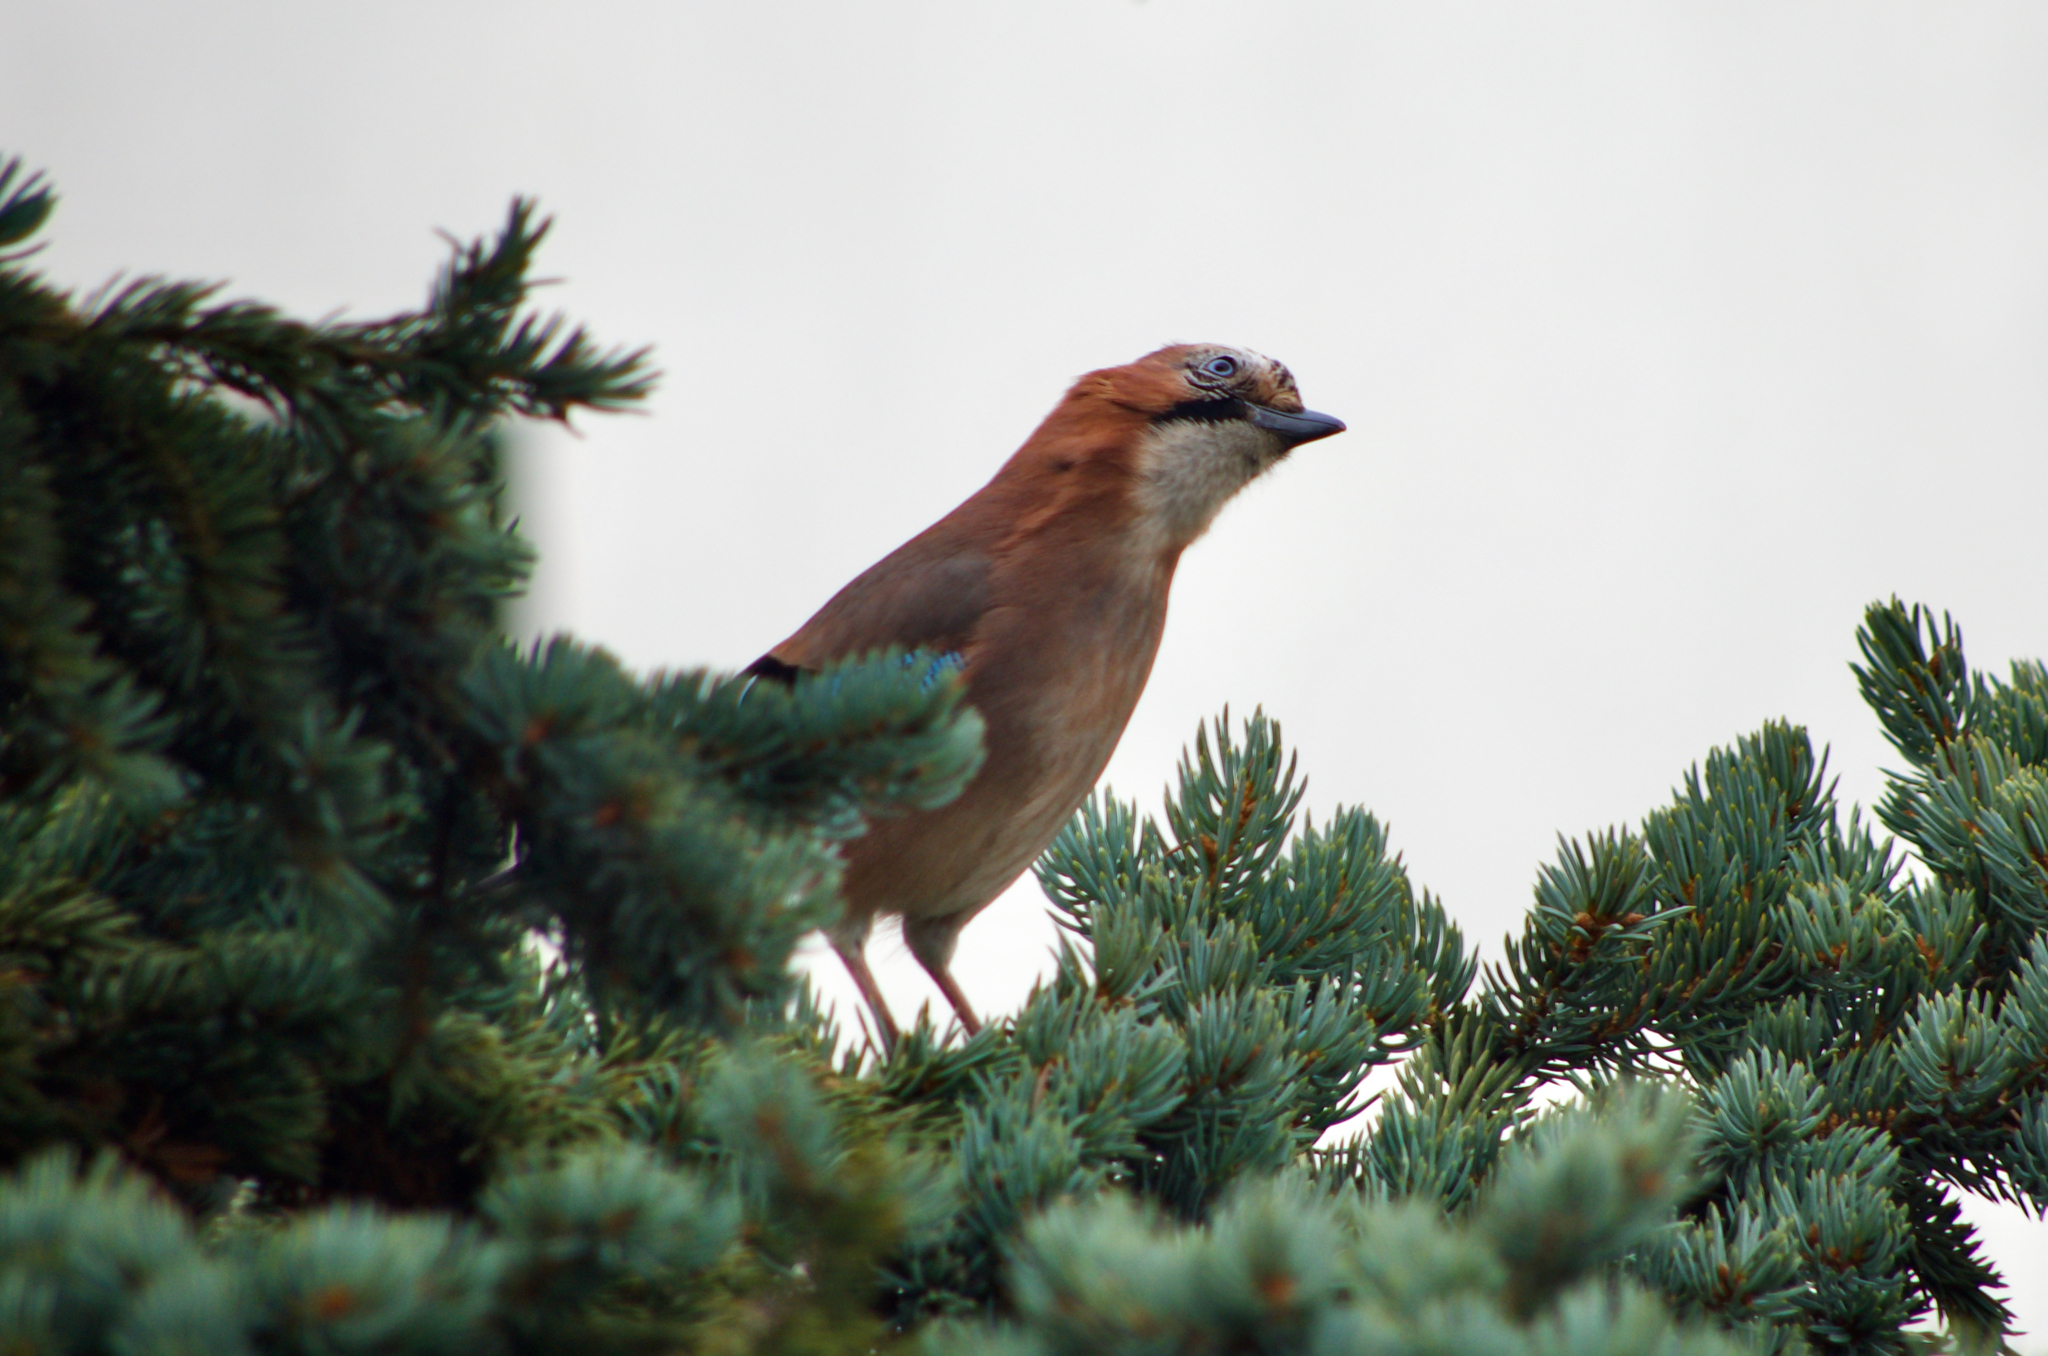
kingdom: Animalia
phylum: Chordata
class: Aves
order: Passeriformes
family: Corvidae
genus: Garrulus
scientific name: Garrulus glandarius
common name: Eurasian jay
